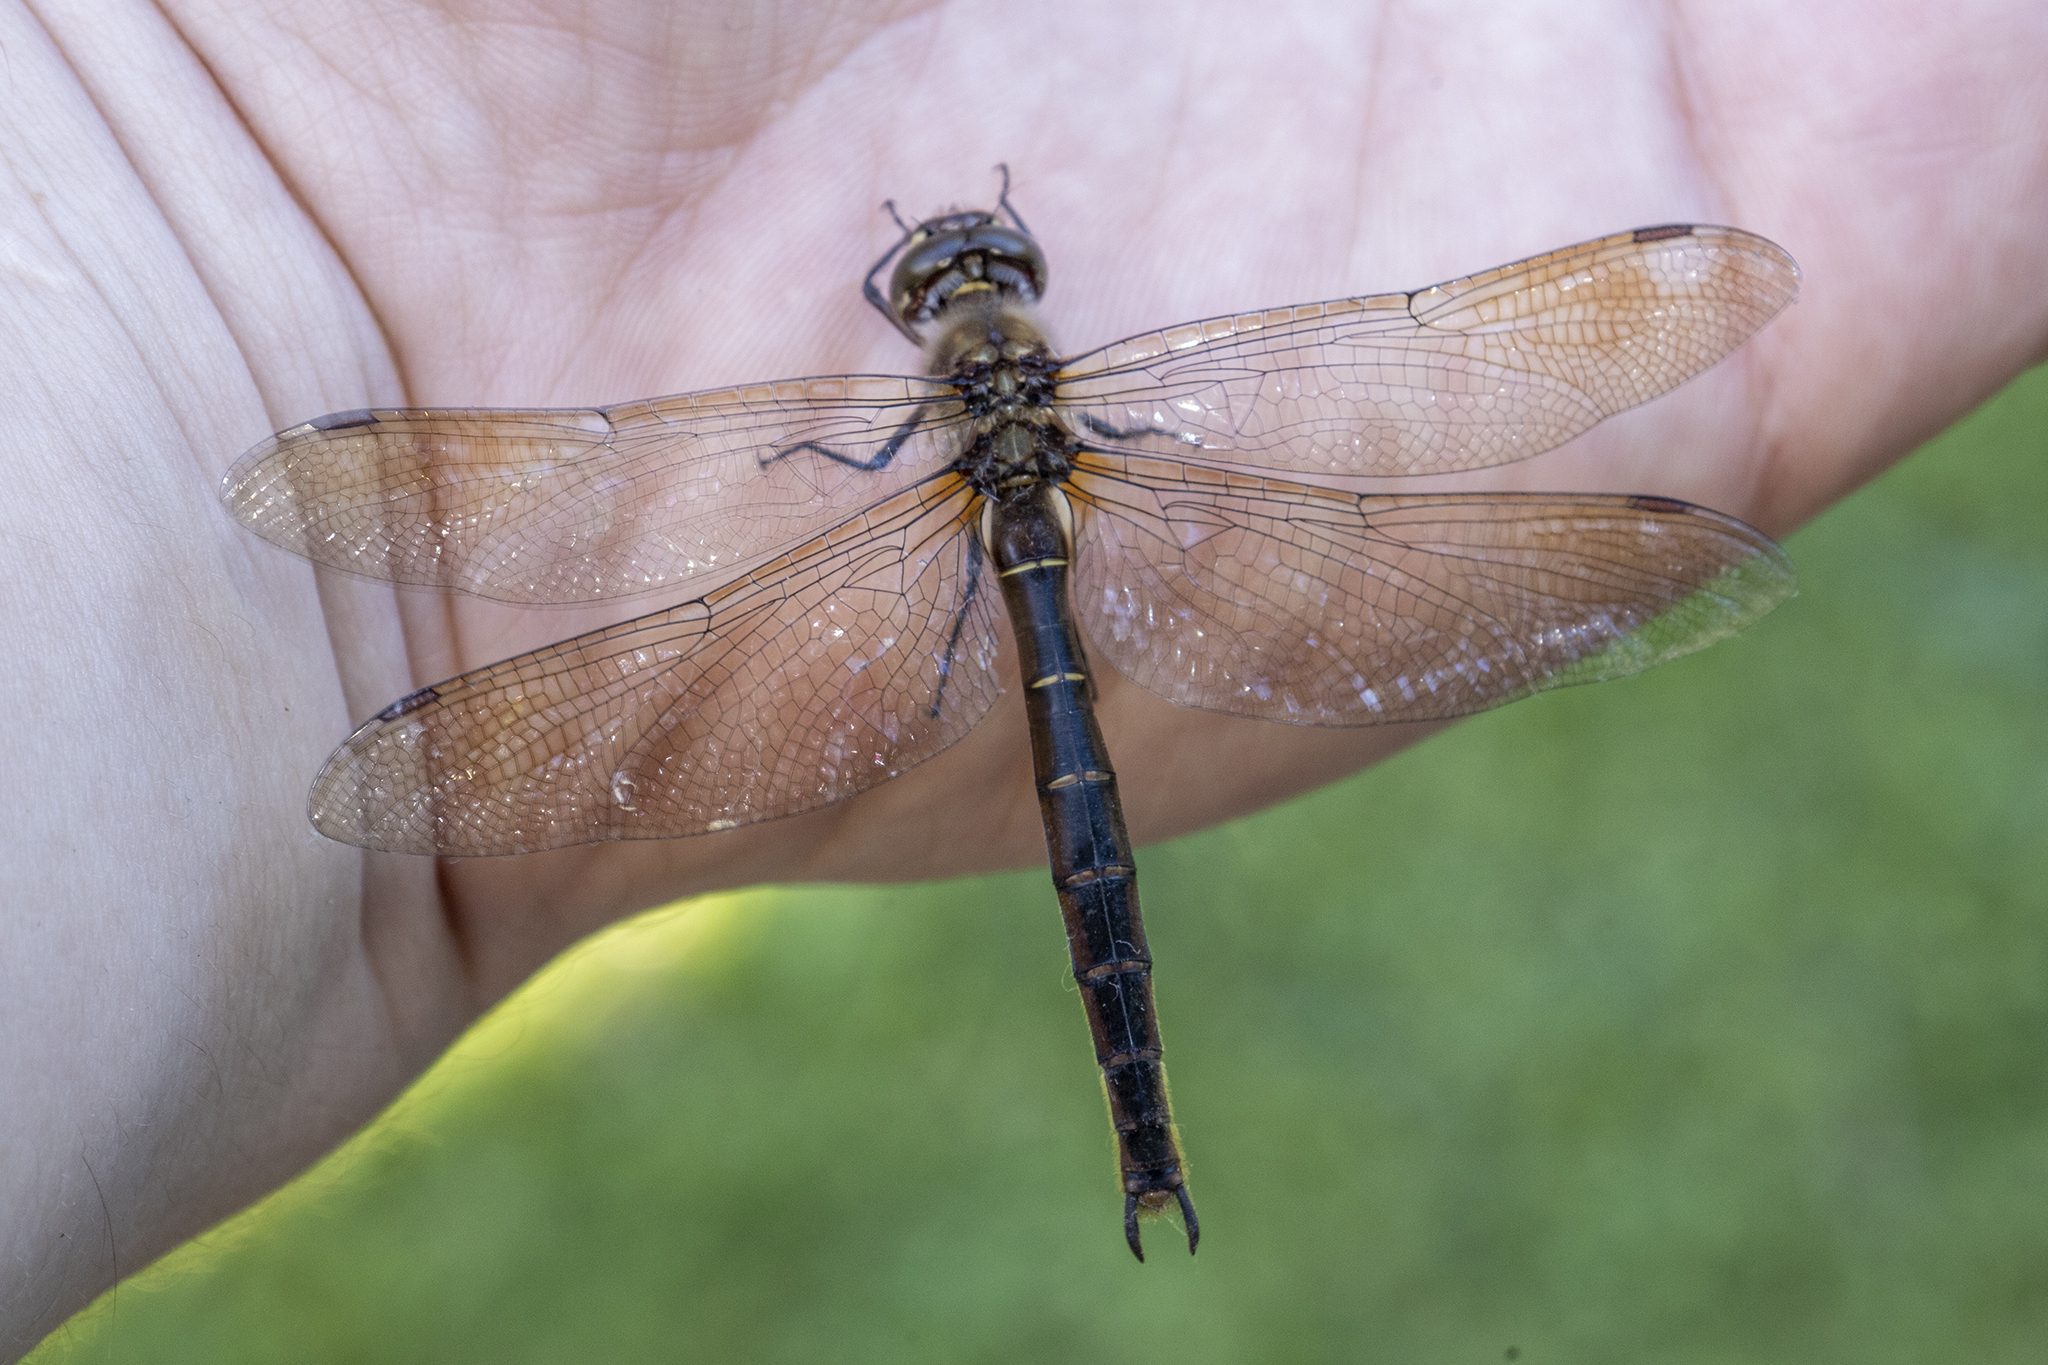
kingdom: Animalia
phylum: Arthropoda
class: Insecta
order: Odonata
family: Corduliidae
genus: Procordulia
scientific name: Procordulia smithii
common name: Ranger dragonfly
